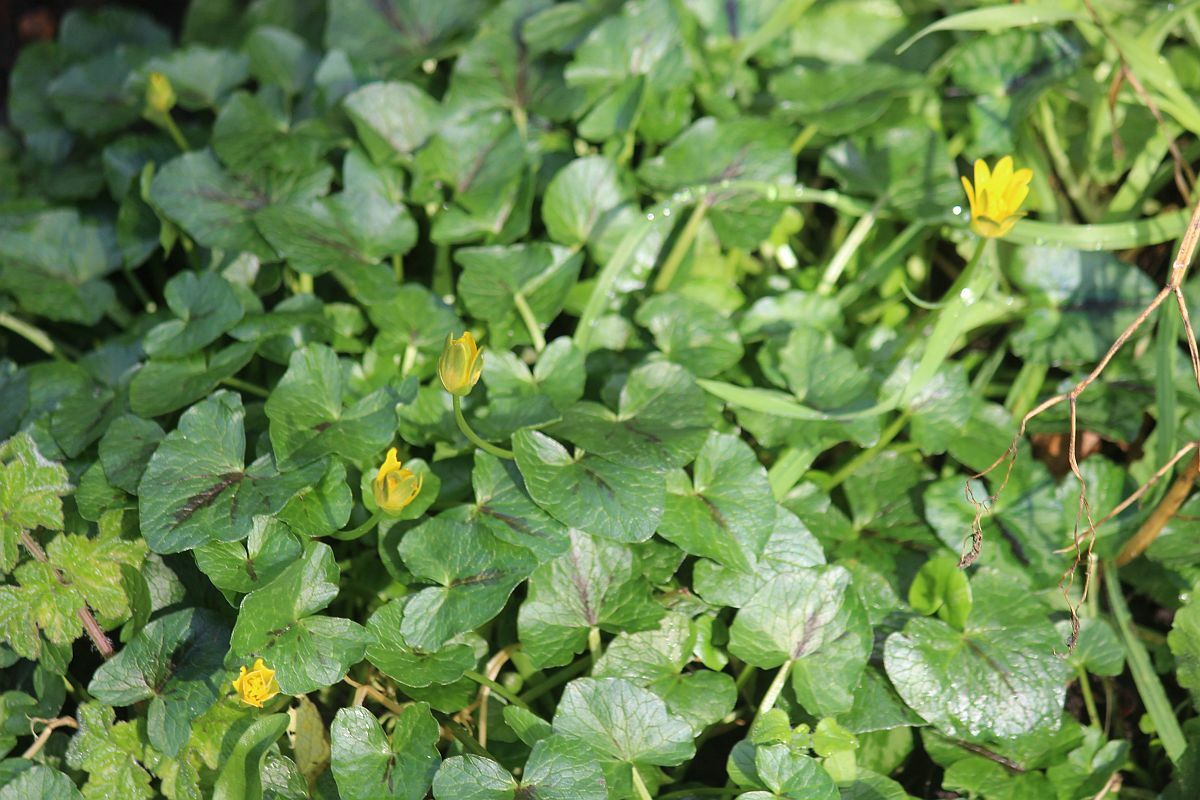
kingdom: Plantae
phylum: Tracheophyta
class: Magnoliopsida
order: Ranunculales
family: Ranunculaceae
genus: Ficaria
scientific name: Ficaria verna
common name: Lesser celandine
